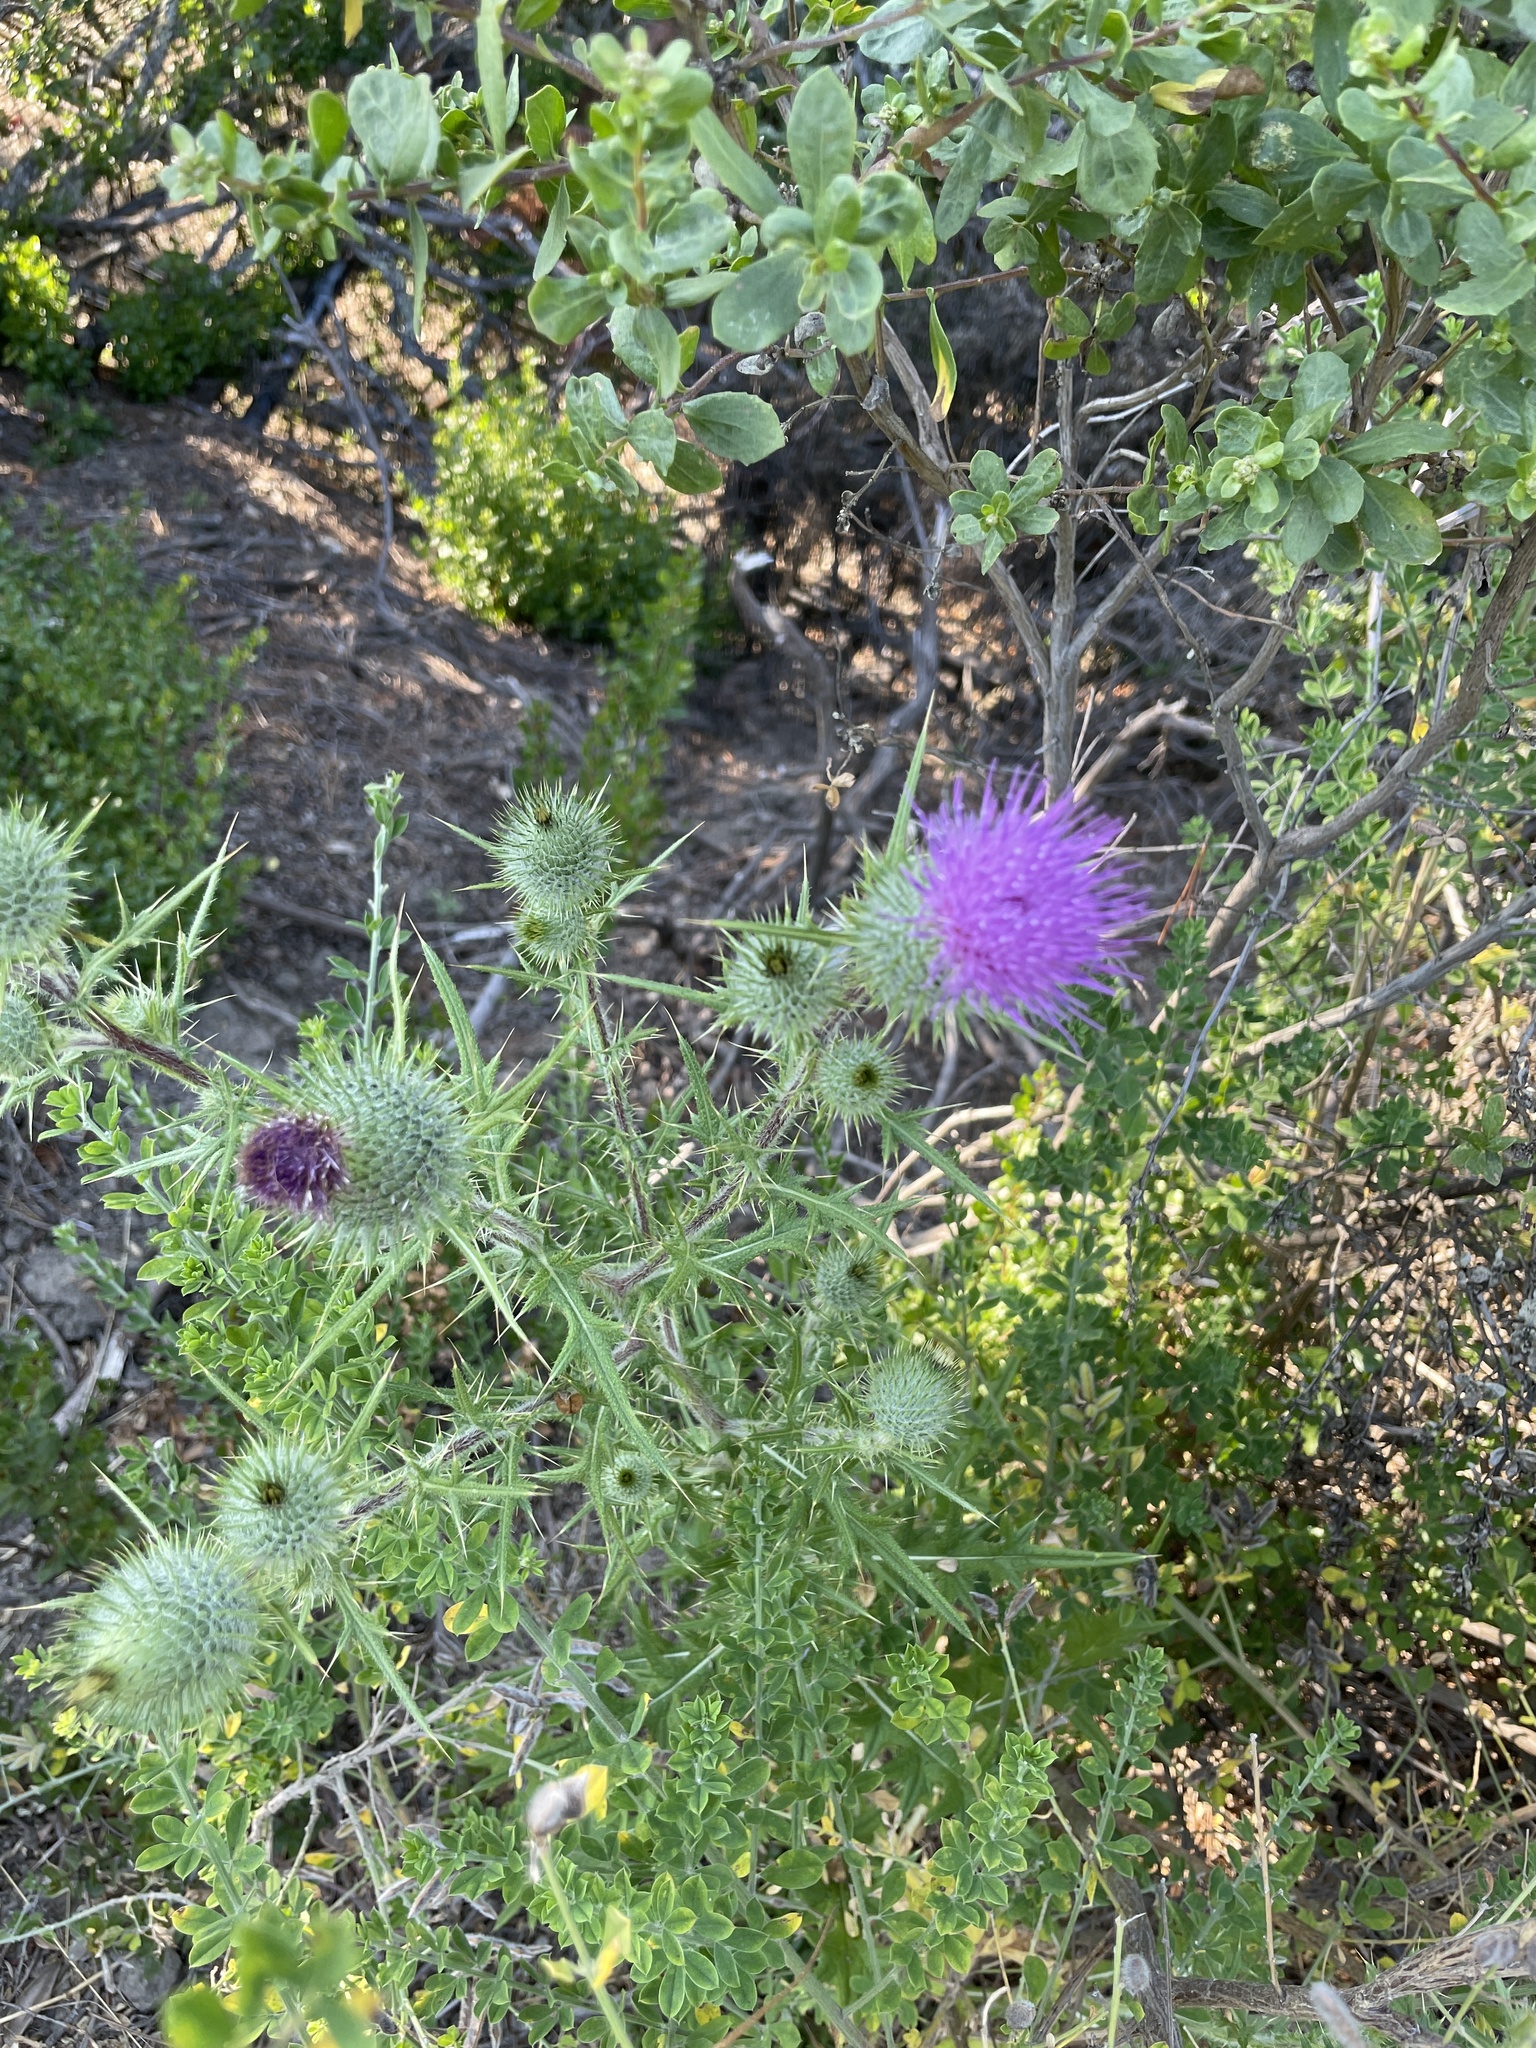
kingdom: Plantae
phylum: Tracheophyta
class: Magnoliopsida
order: Asterales
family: Asteraceae
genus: Cirsium
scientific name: Cirsium vulgare
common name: Bull thistle
